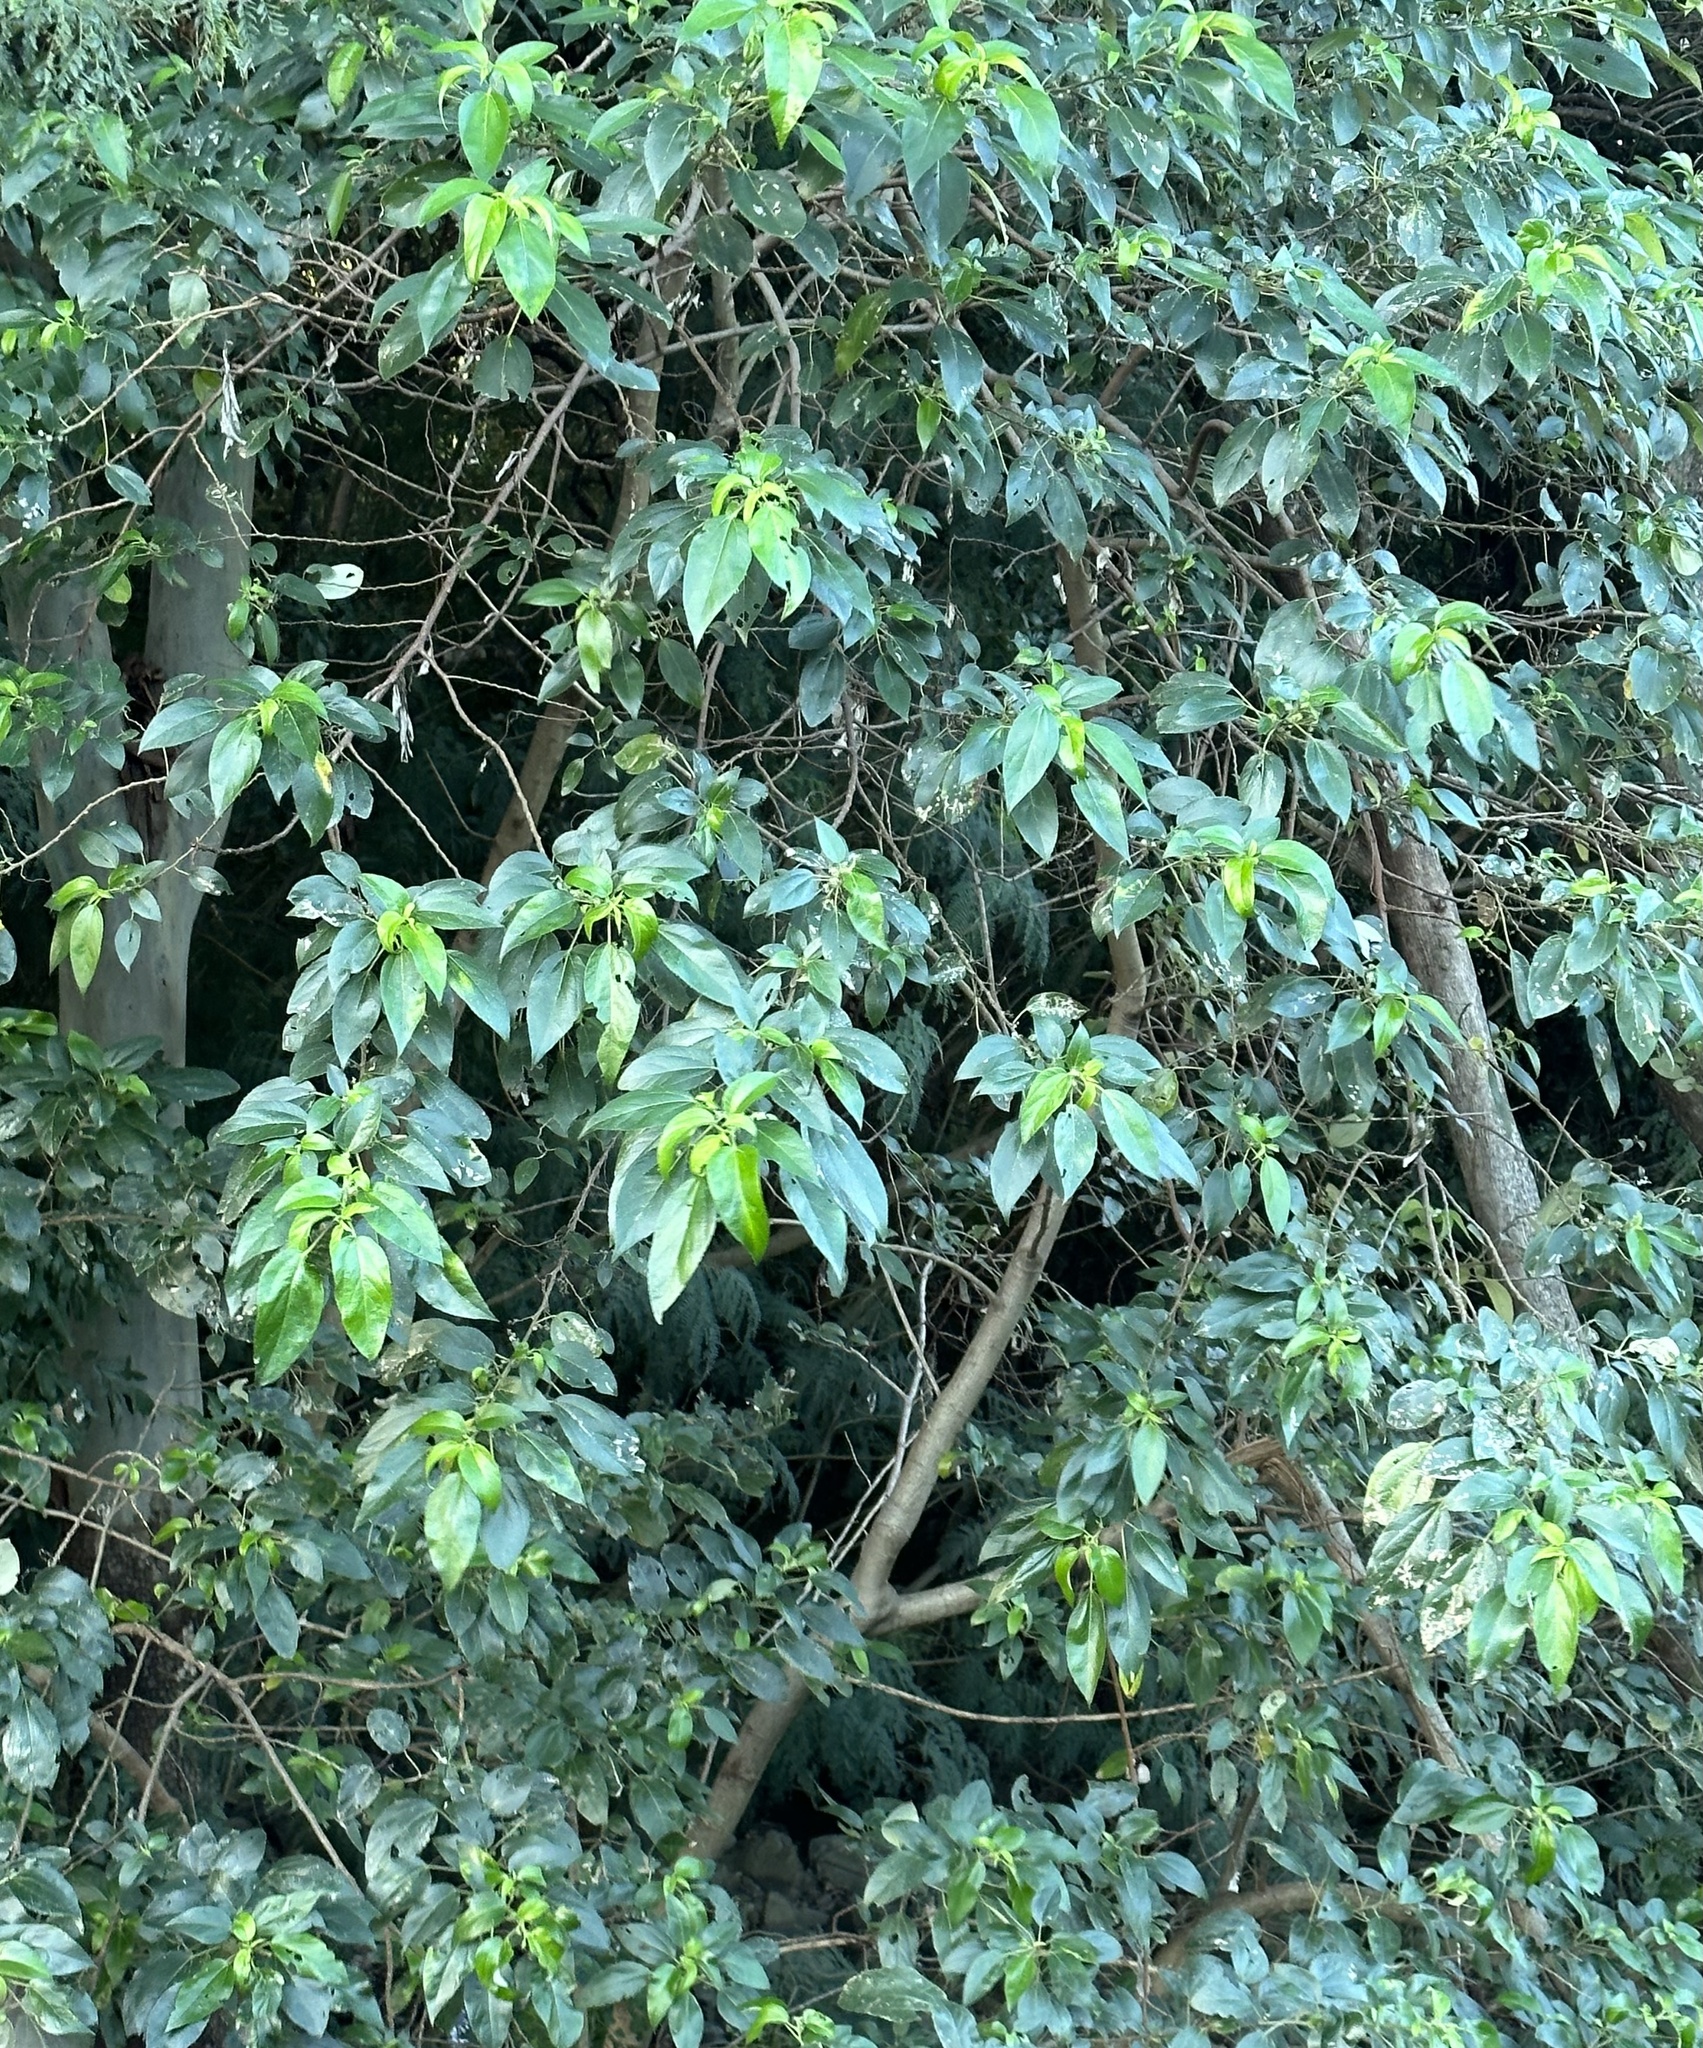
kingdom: Plantae
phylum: Tracheophyta
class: Magnoliopsida
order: Rosales
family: Urticaceae
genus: Pipturus
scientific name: Pipturus argenteus
